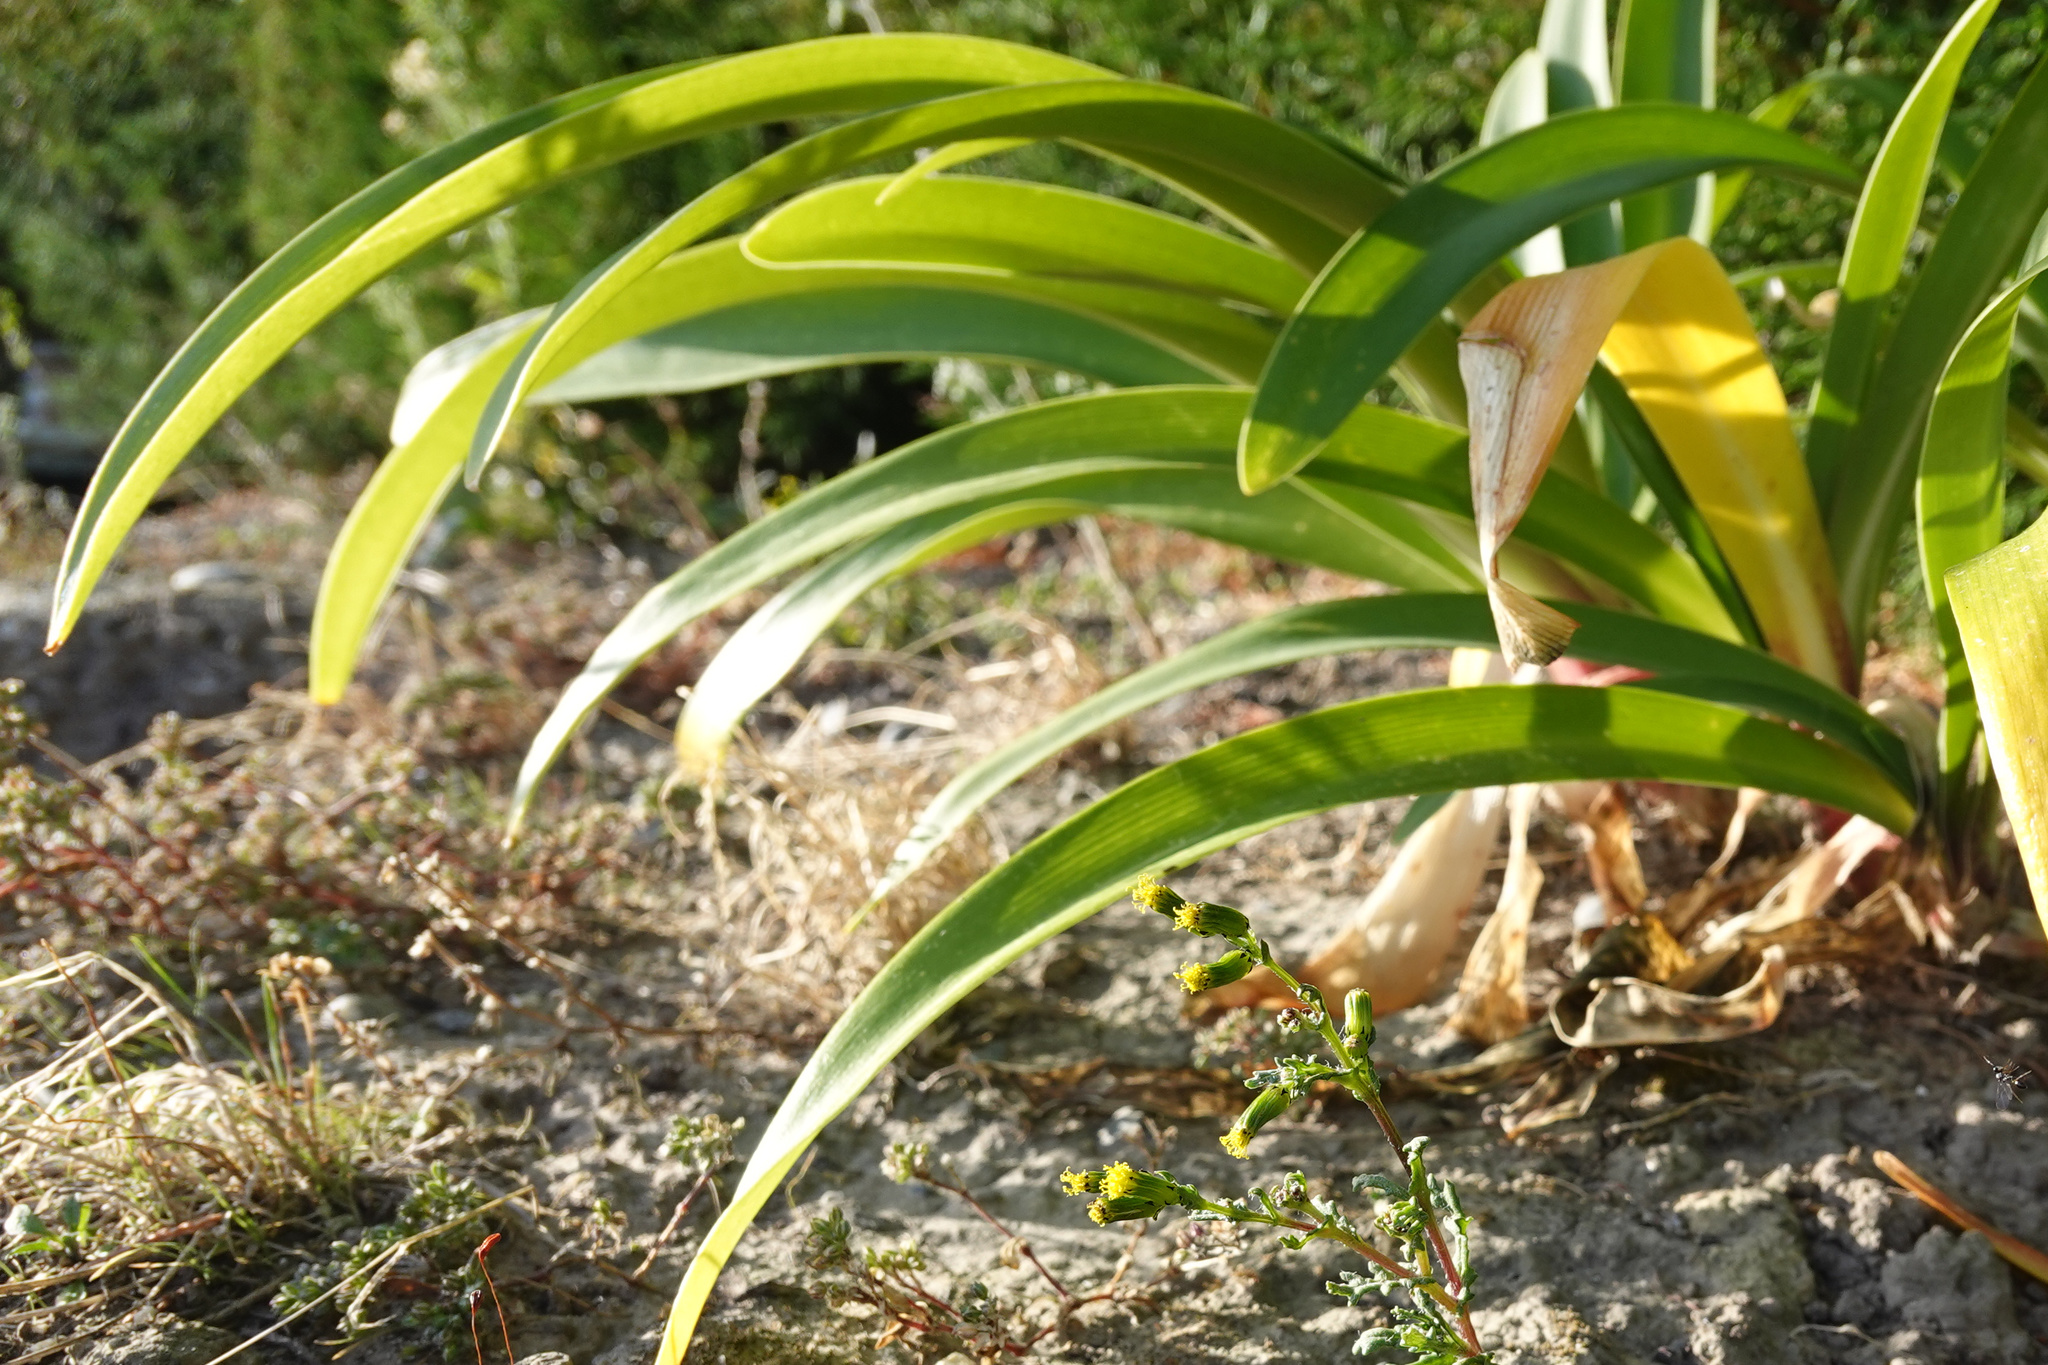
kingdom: Plantae
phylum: Tracheophyta
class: Liliopsida
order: Asparagales
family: Amaryllidaceae
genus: Agapanthus
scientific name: Agapanthus praecox
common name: African-lily
